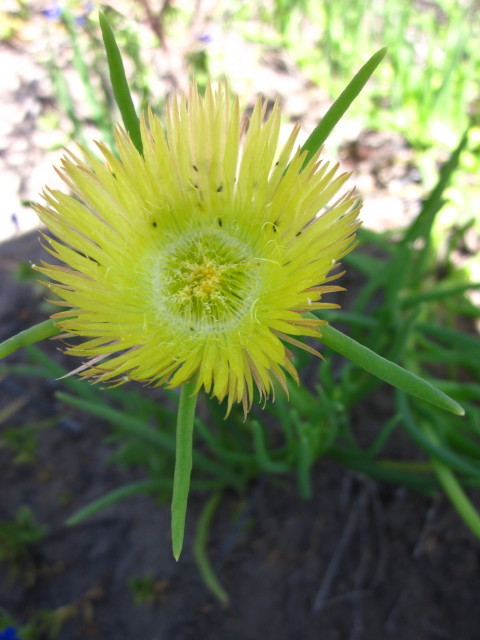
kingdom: Plantae
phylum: Tracheophyta
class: Magnoliopsida
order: Caryophyllales
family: Aizoaceae
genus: Conicosia
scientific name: Conicosia pugioniformis
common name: Narrow-leaved iceplant
